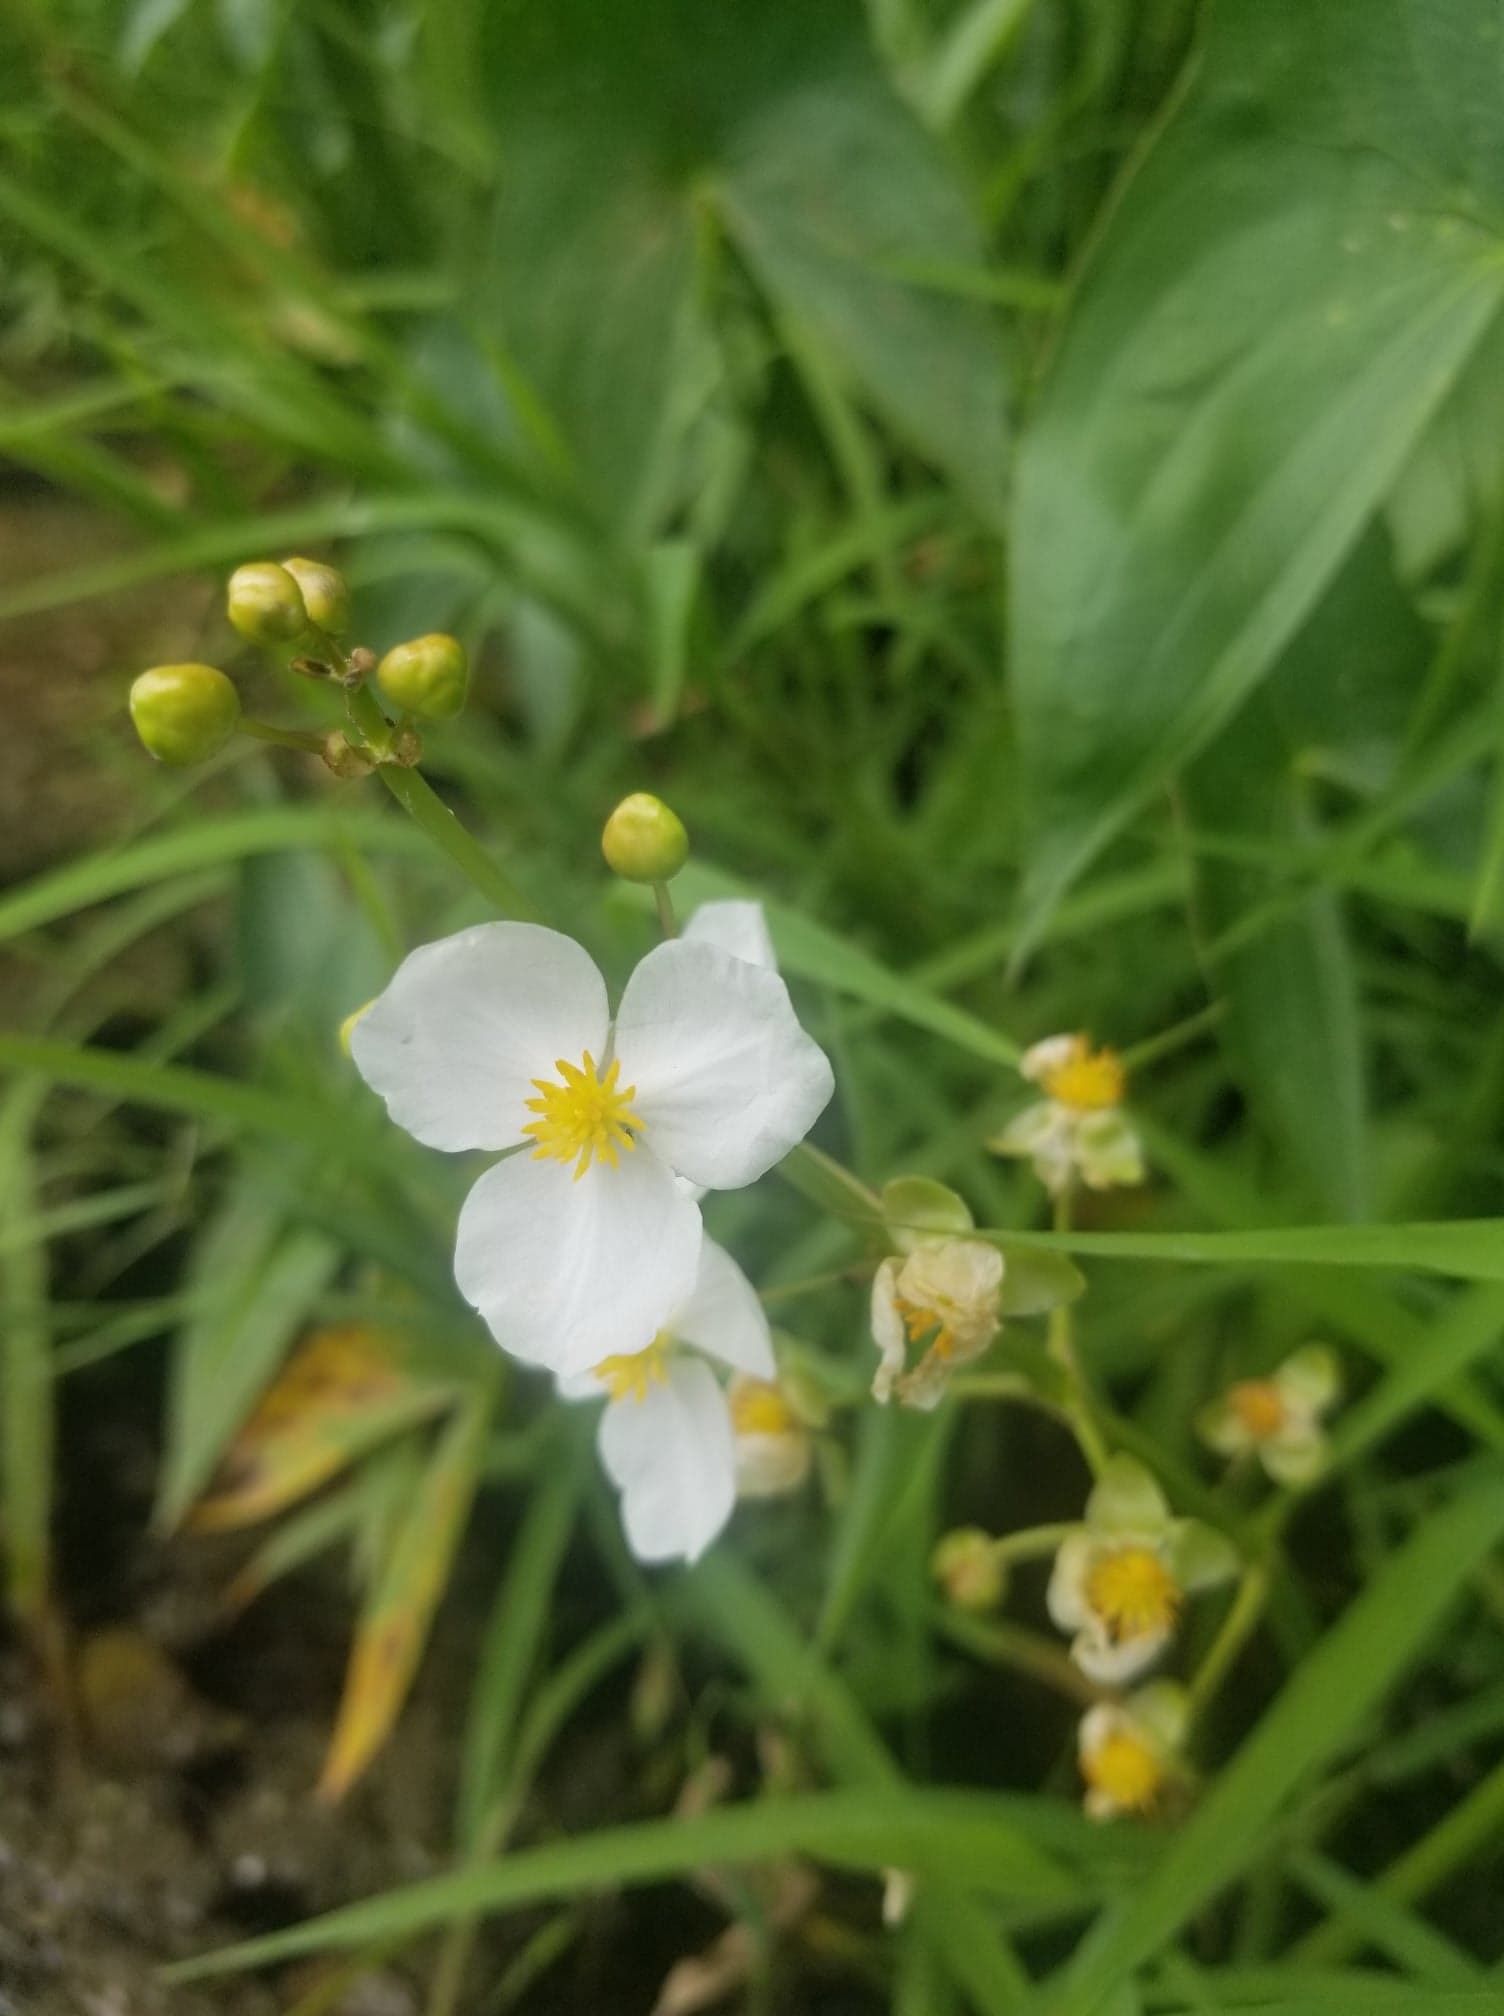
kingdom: Plantae
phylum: Tracheophyta
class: Liliopsida
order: Alismatales
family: Alismataceae
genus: Sagittaria
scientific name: Sagittaria latifolia
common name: Duck-potato
